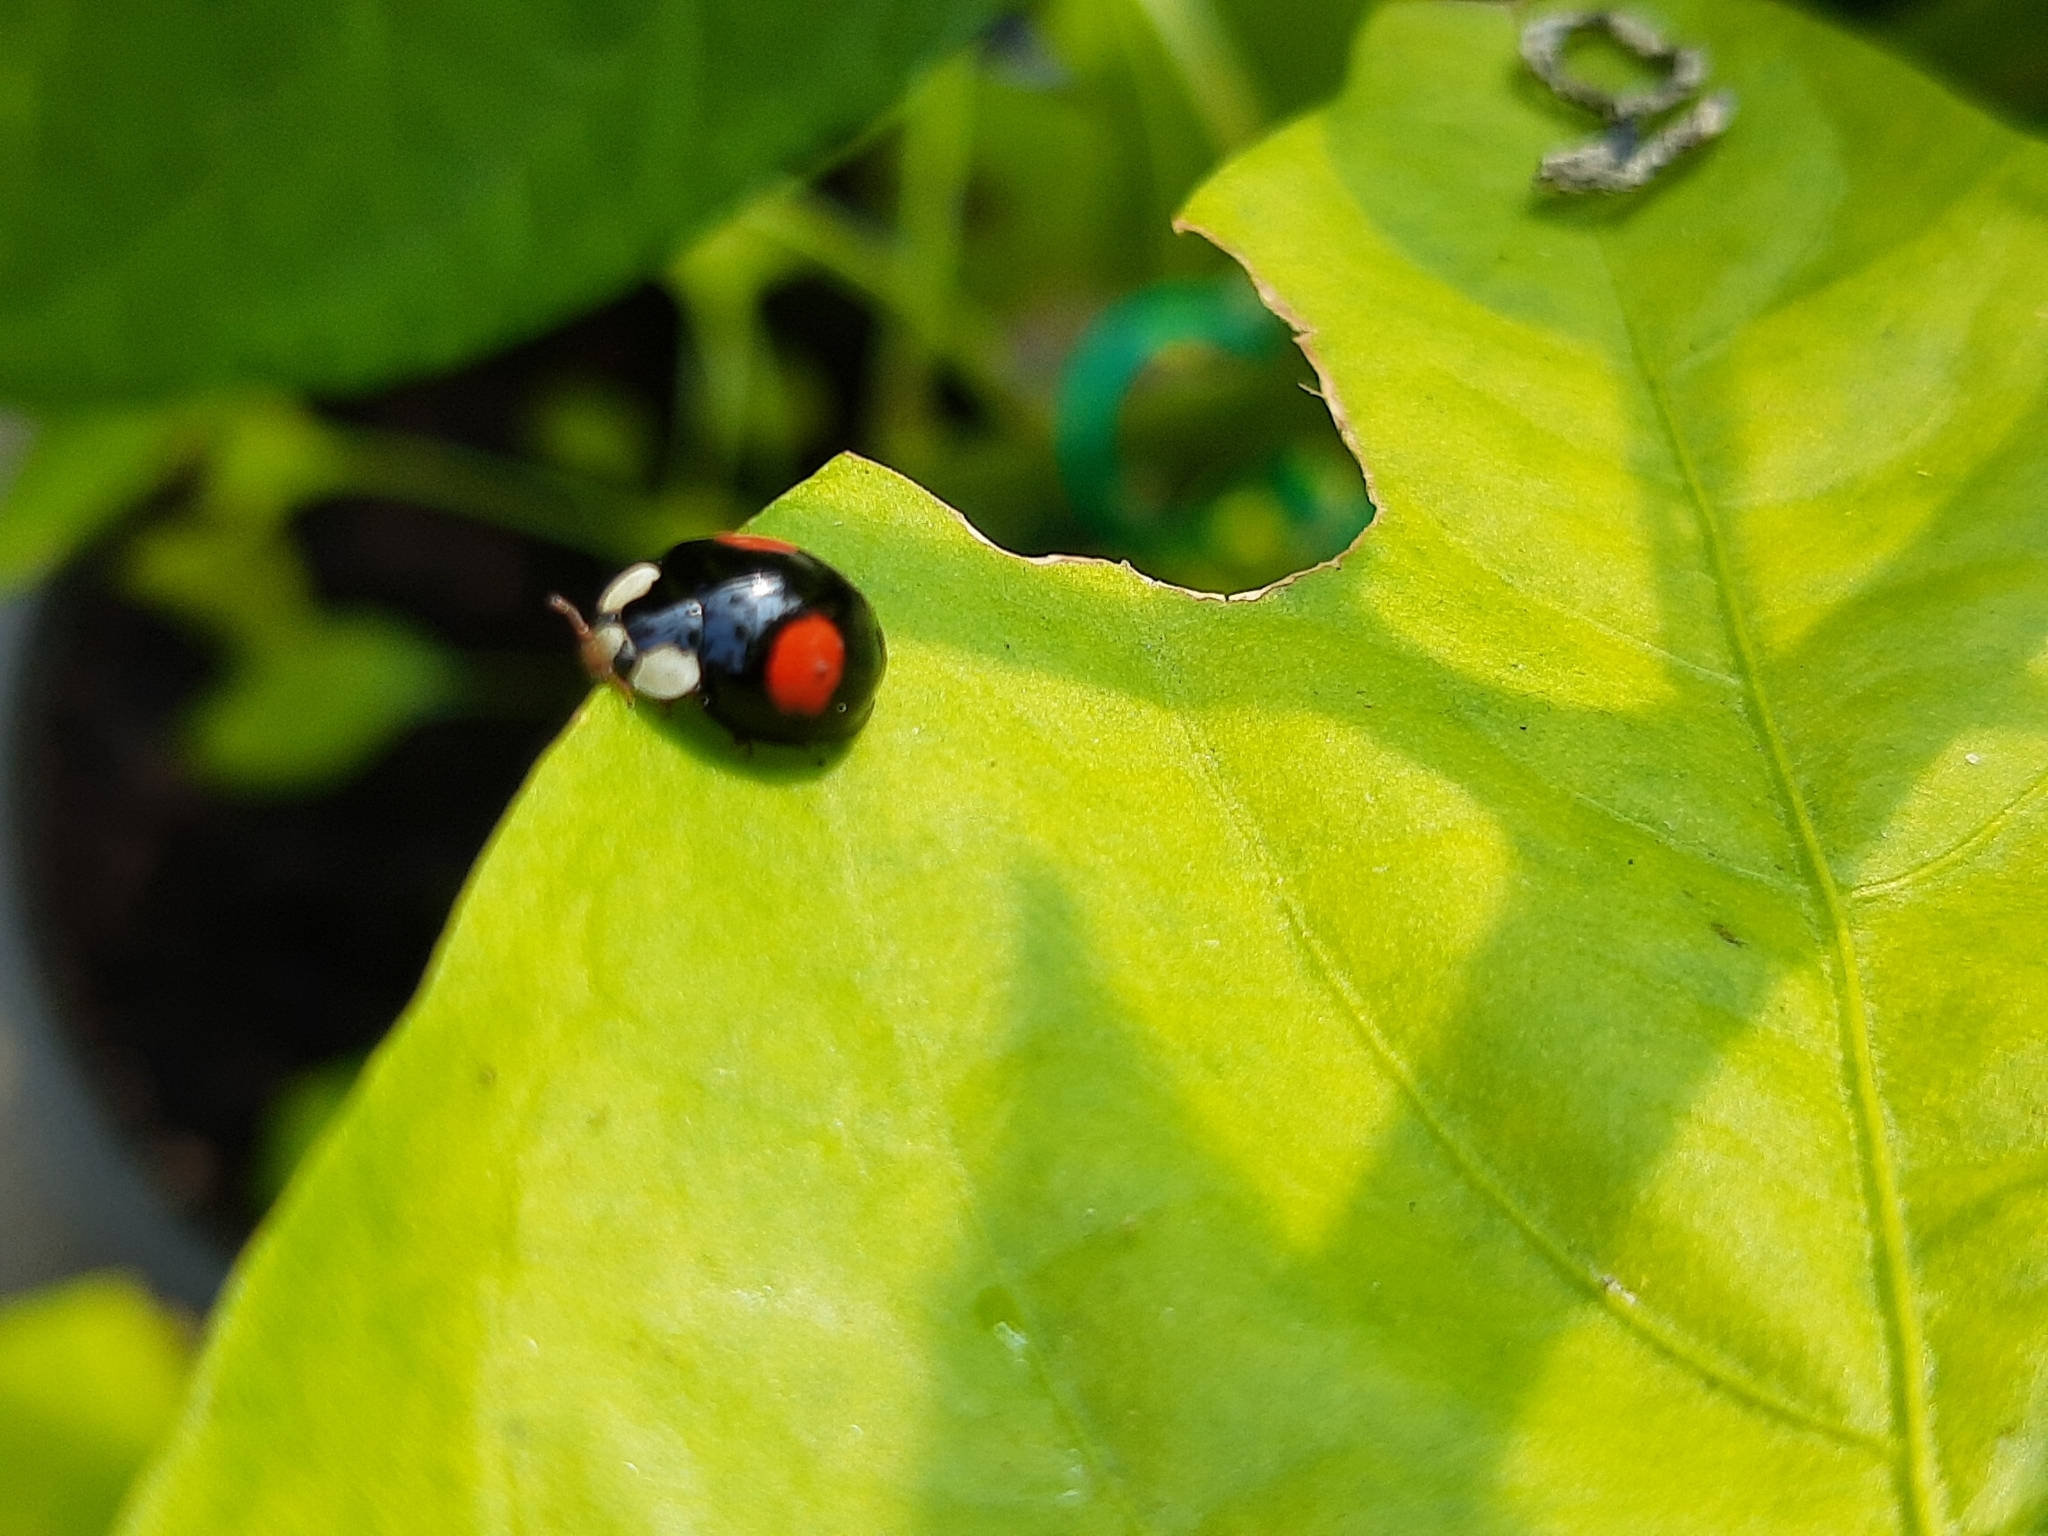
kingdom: Animalia
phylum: Arthropoda
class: Insecta
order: Coleoptera
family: Coccinellidae
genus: Harmonia
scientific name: Harmonia axyridis
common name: Harlequin ladybird
